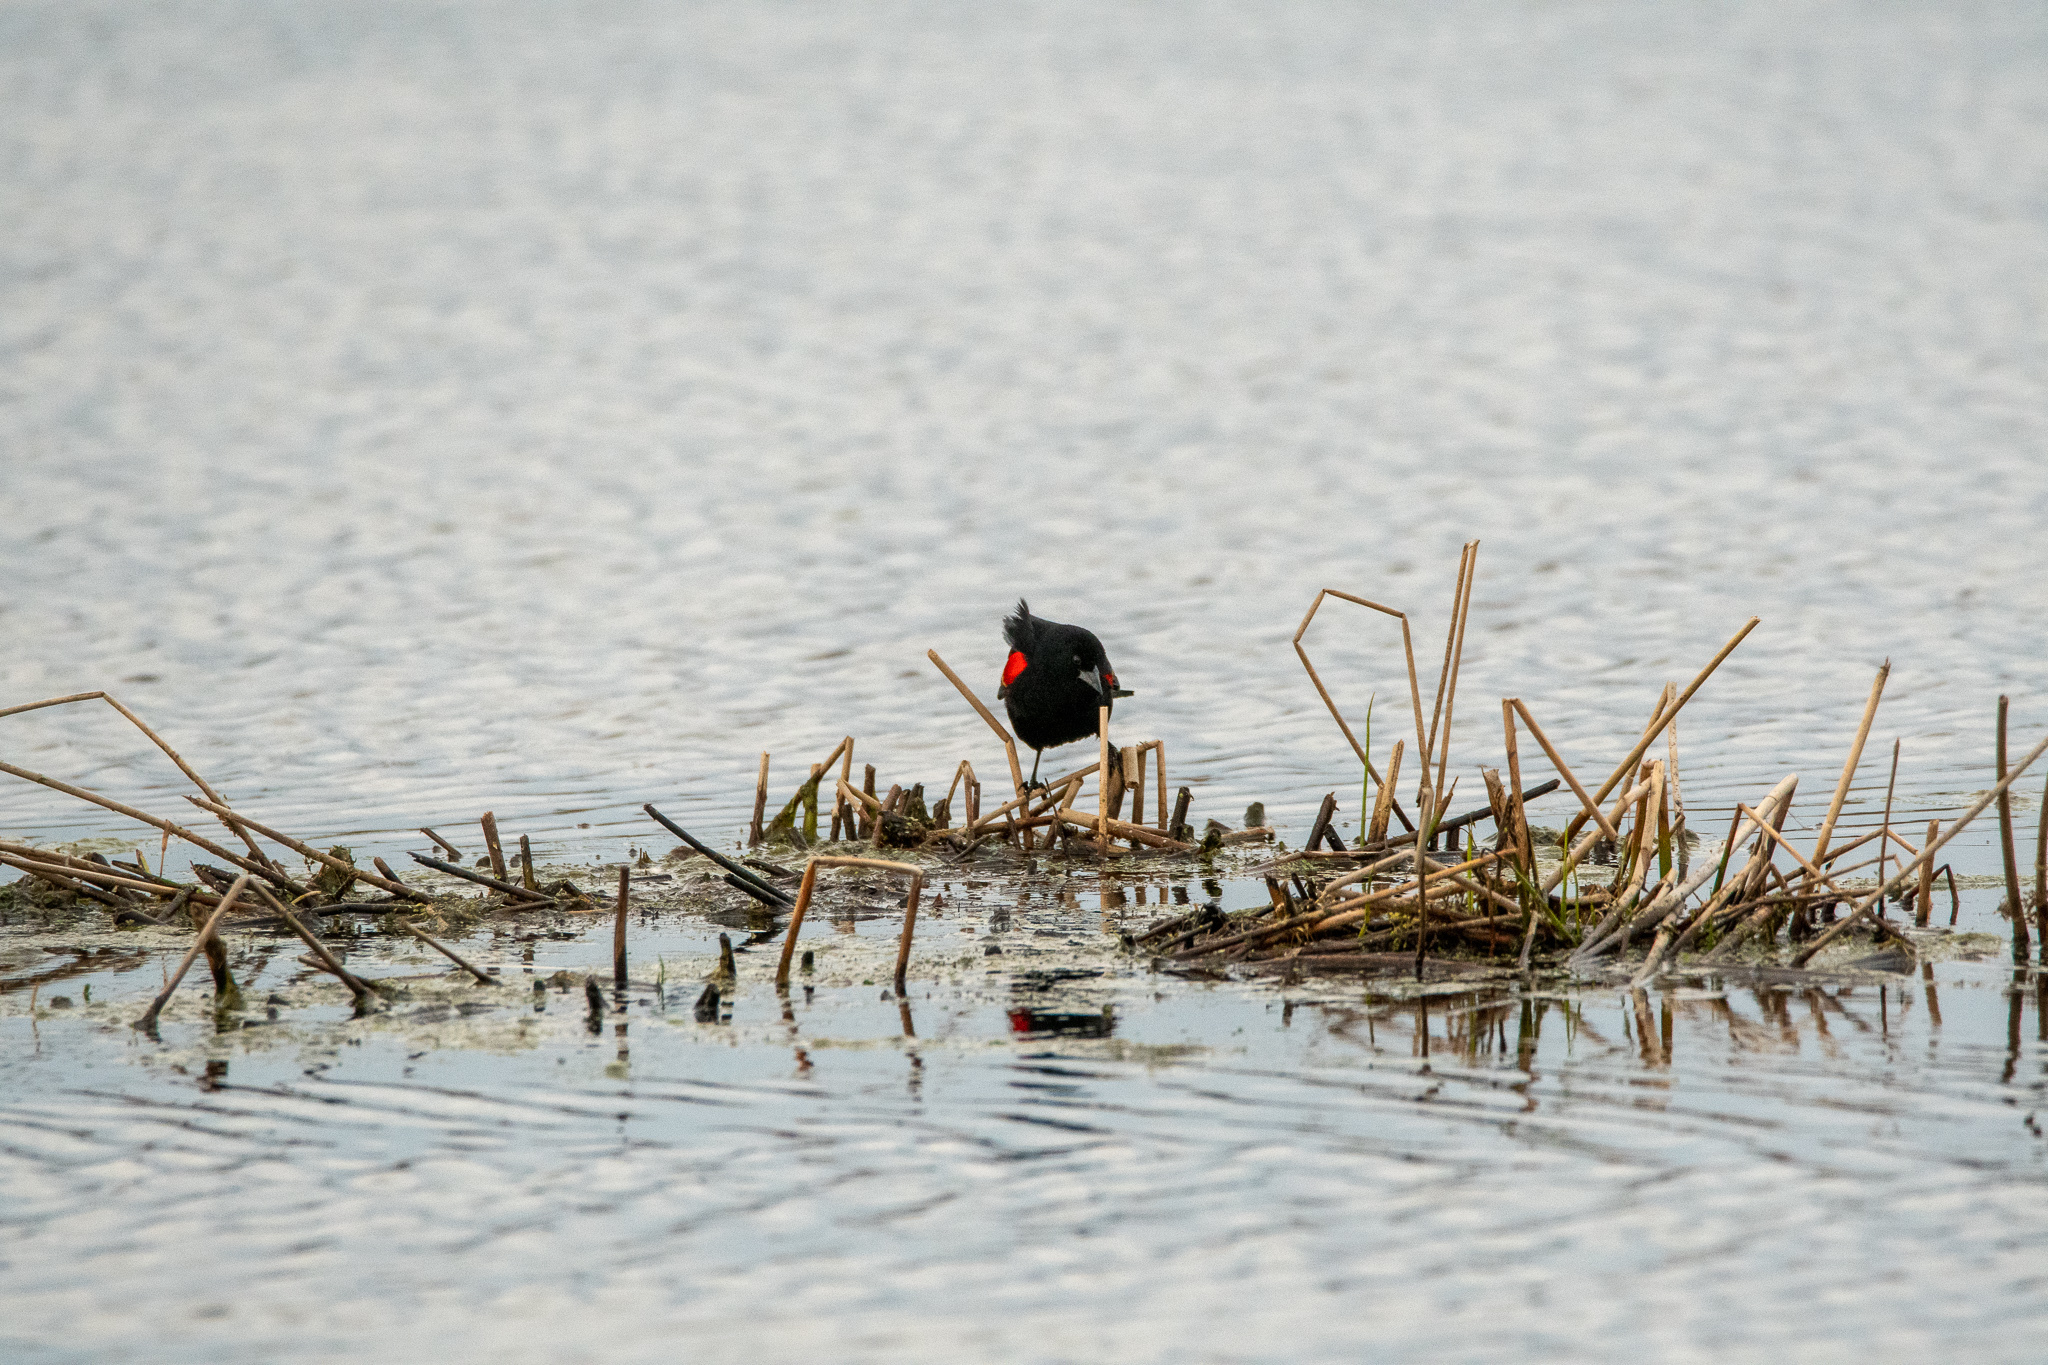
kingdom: Animalia
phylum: Chordata
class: Aves
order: Passeriformes
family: Icteridae
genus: Agelaius
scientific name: Agelaius phoeniceus
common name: Red-winged blackbird
